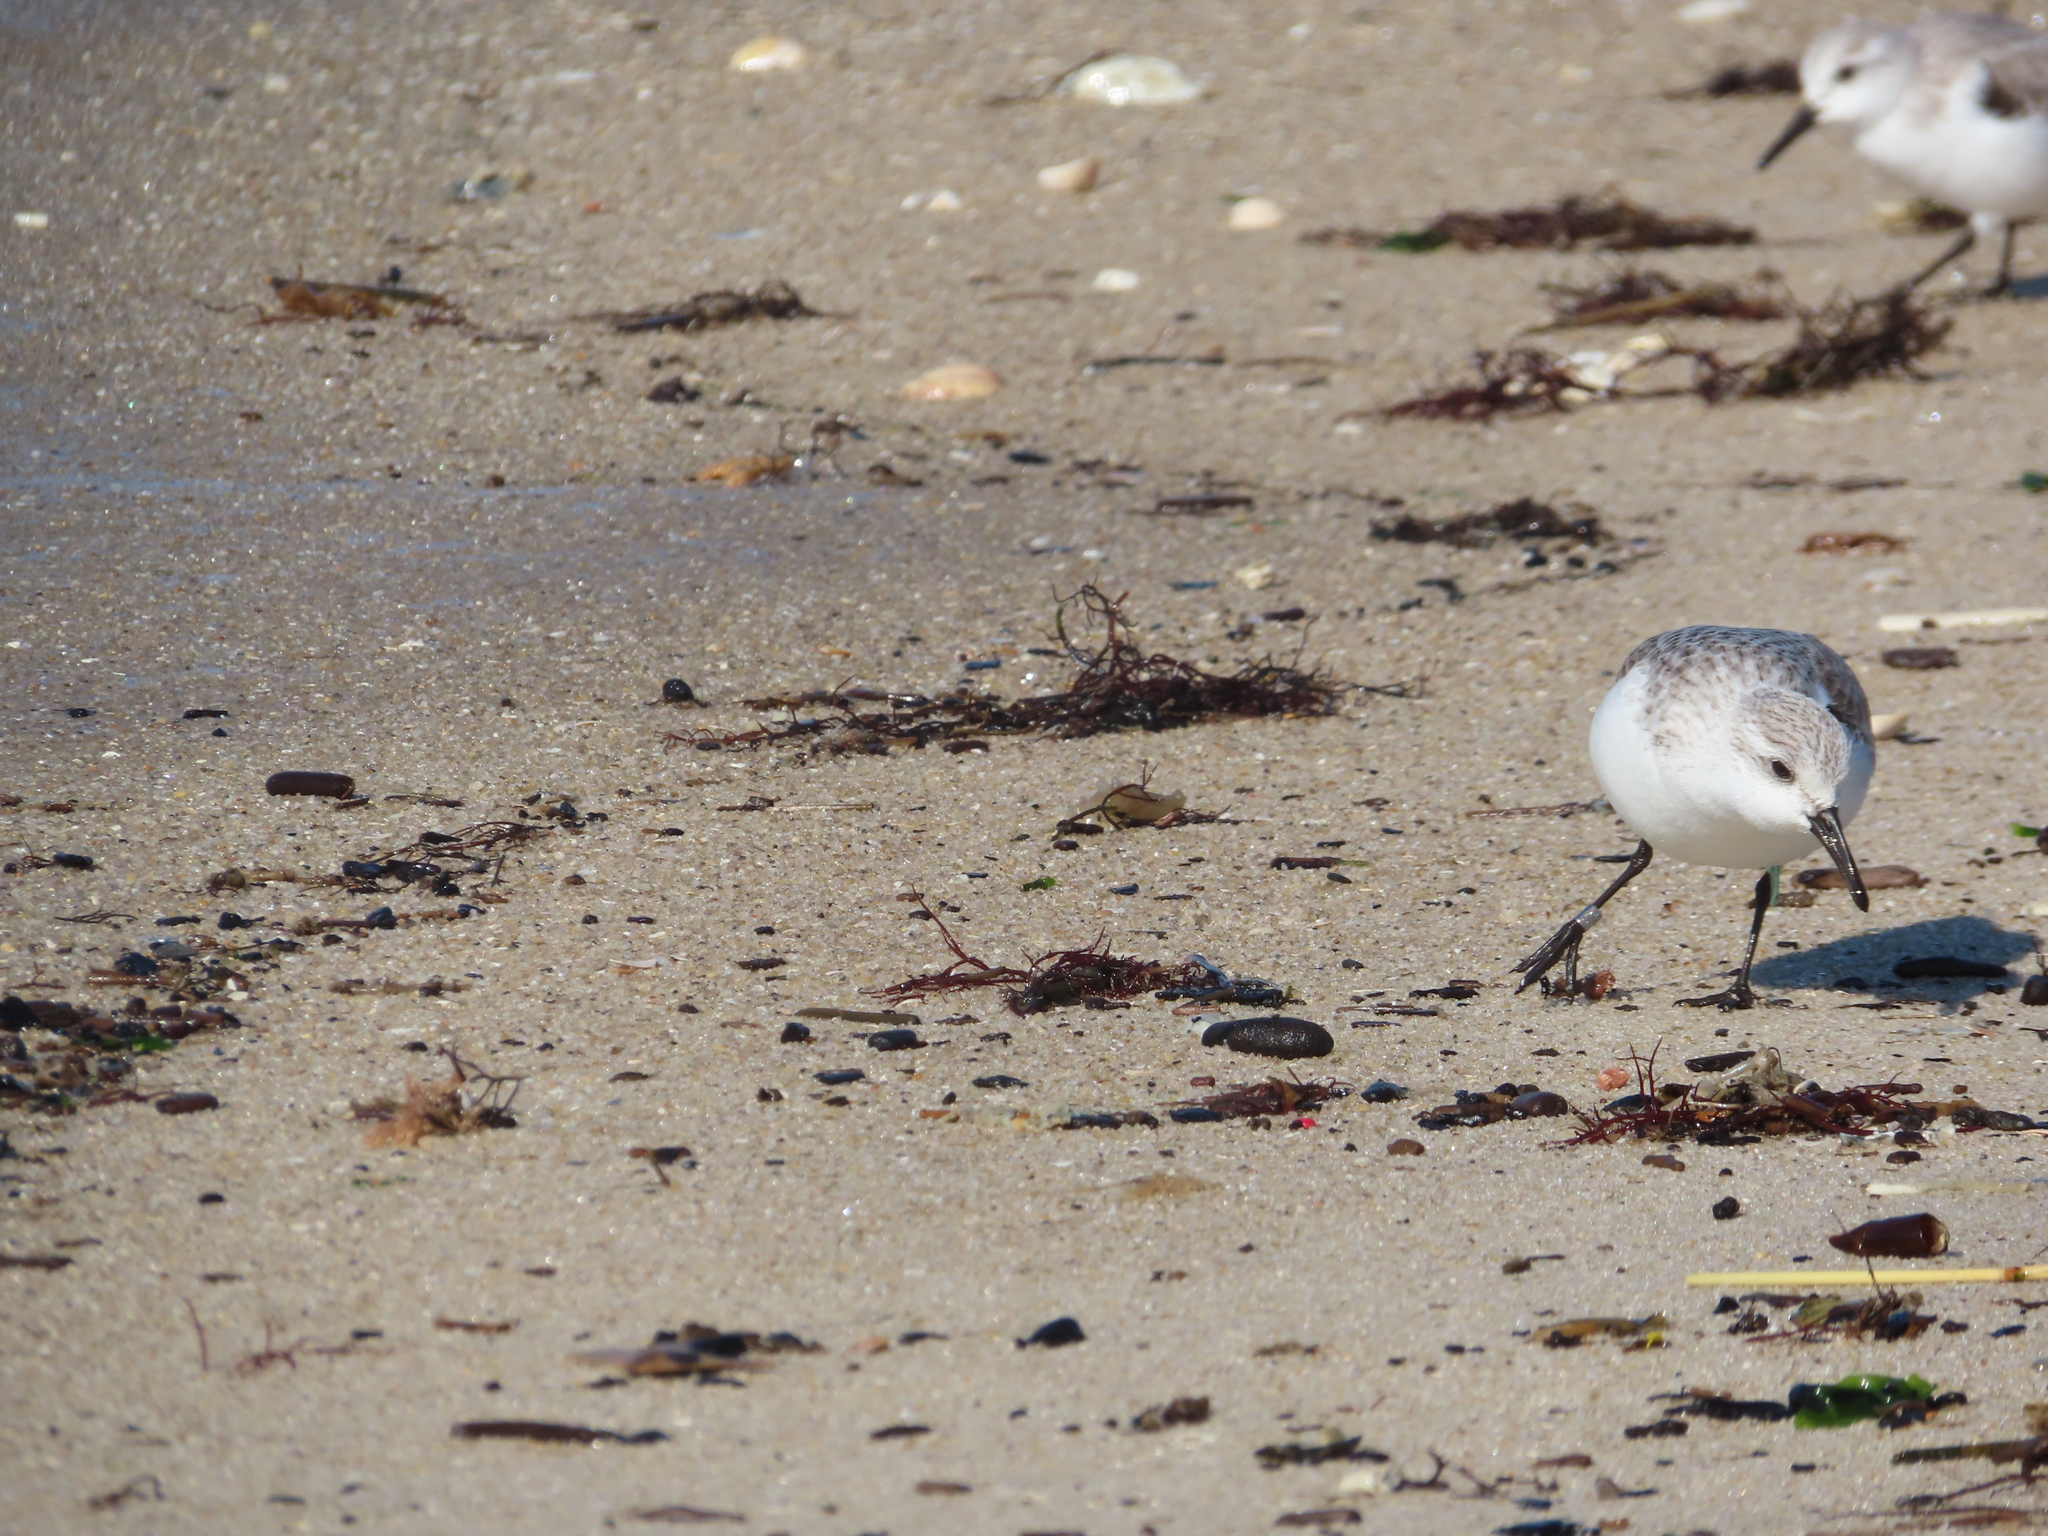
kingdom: Animalia
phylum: Chordata
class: Aves
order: Charadriiformes
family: Scolopacidae
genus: Calidris
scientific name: Calidris alba
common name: Sanderling
